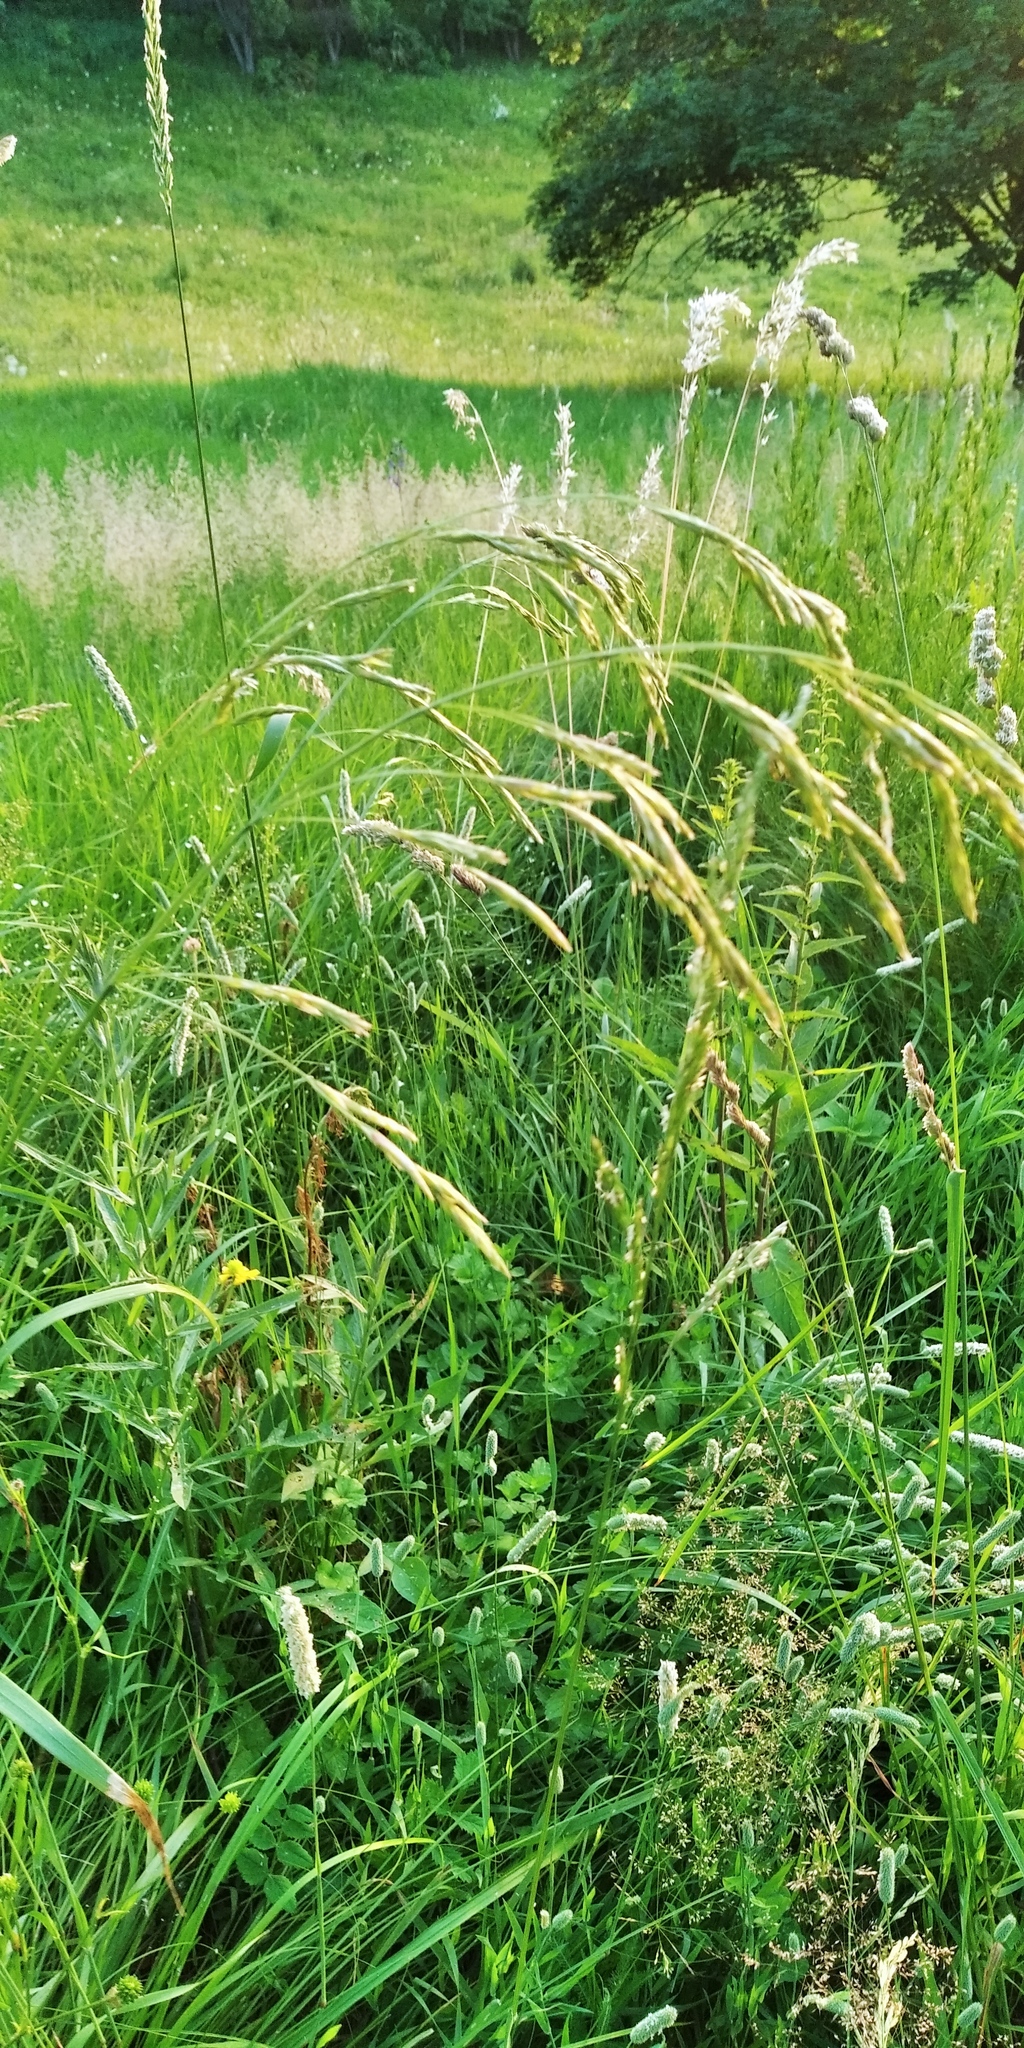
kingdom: Plantae
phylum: Tracheophyta
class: Liliopsida
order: Poales
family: Poaceae
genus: Bromus
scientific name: Bromus inermis
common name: Smooth brome
